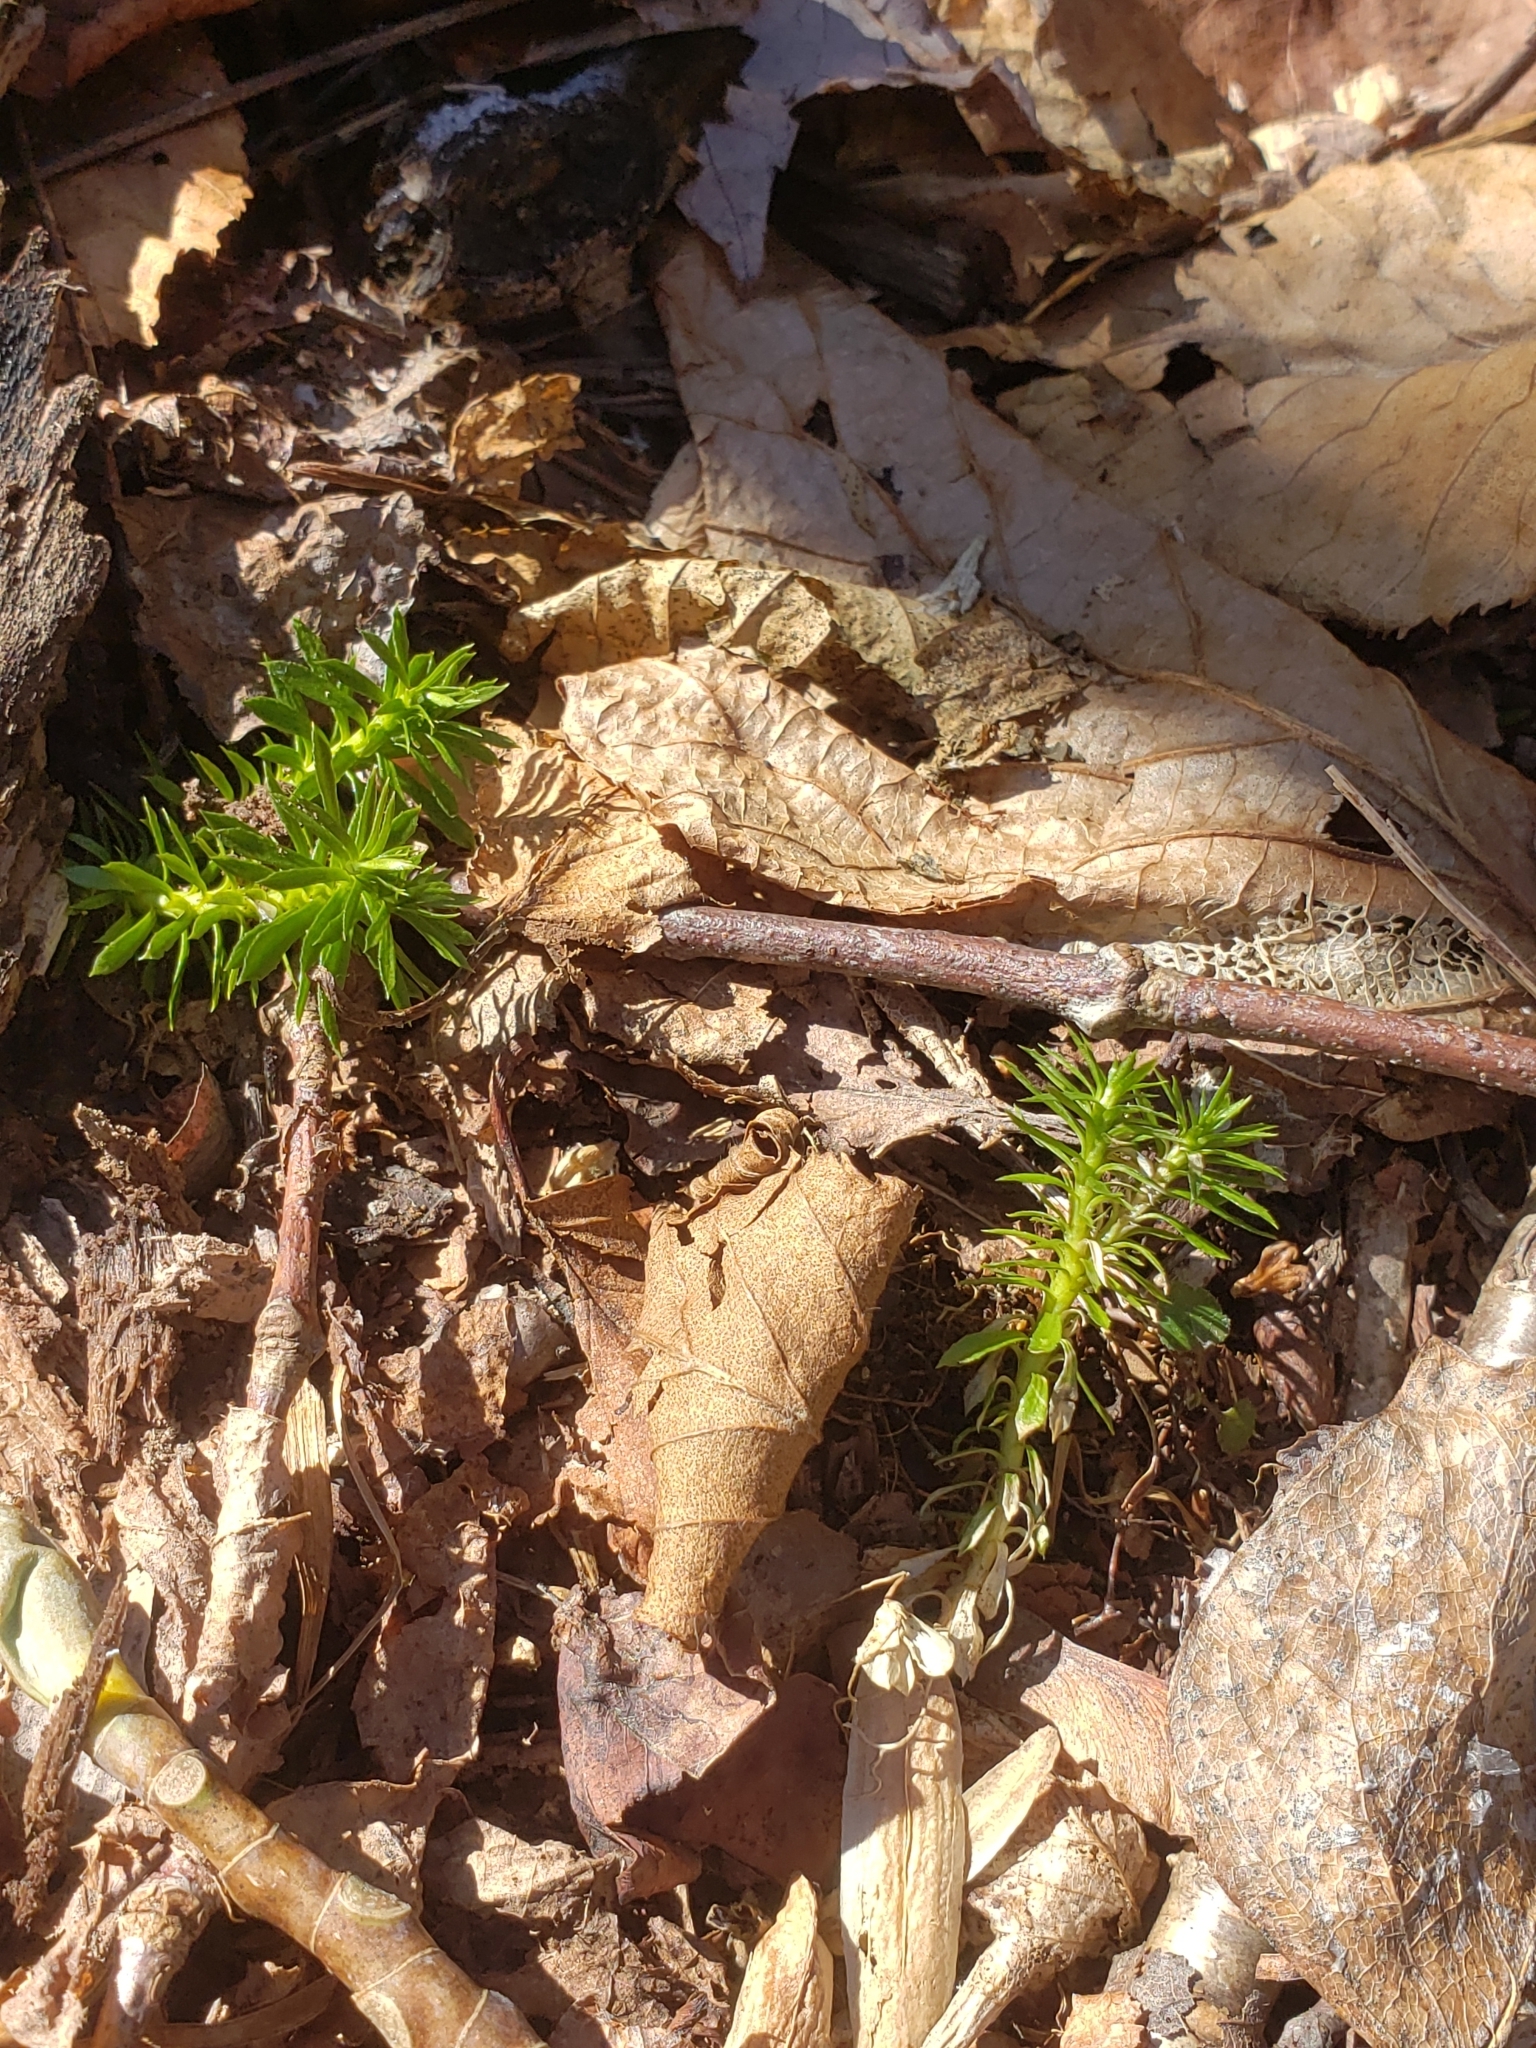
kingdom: Plantae
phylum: Tracheophyta
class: Lycopodiopsida
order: Lycopodiales
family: Lycopodiaceae
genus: Huperzia
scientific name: Huperzia lucidula
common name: Shining clubmoss
